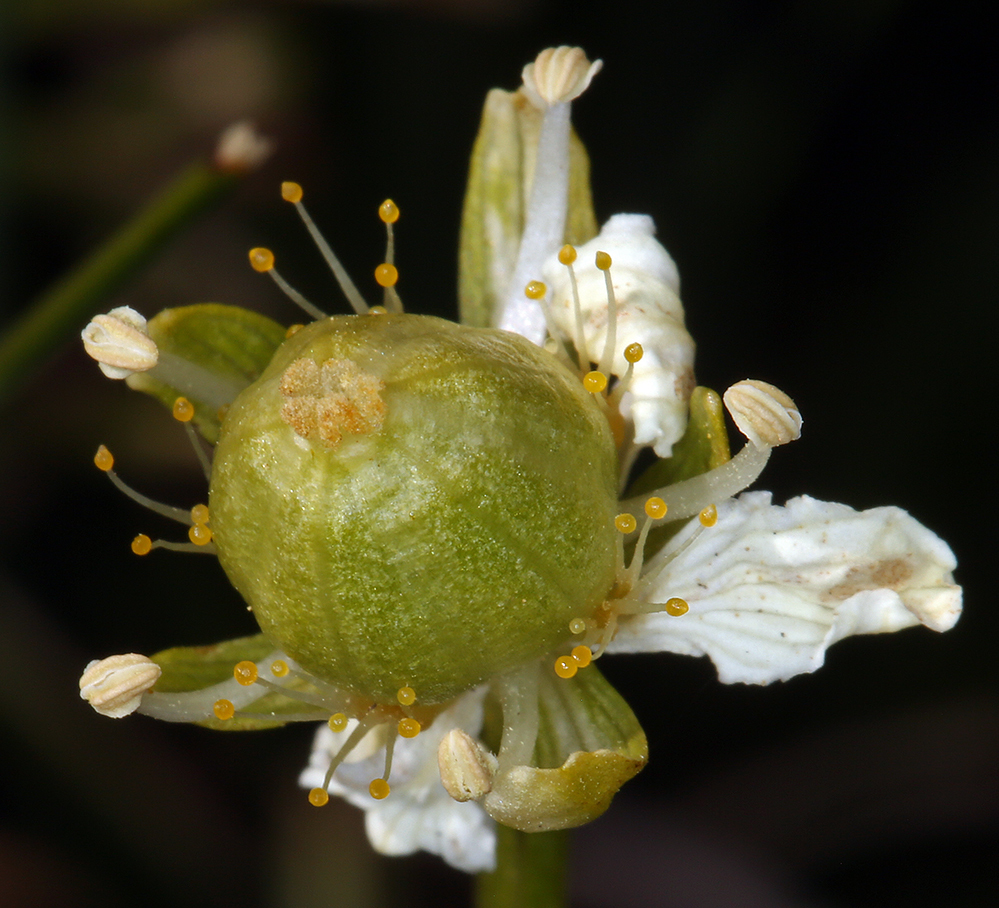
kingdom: Plantae
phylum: Tracheophyta
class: Magnoliopsida
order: Celastrales
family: Parnassiaceae
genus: Parnassia
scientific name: Parnassia parviflora
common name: Small-flowered grass-of-parnassus
